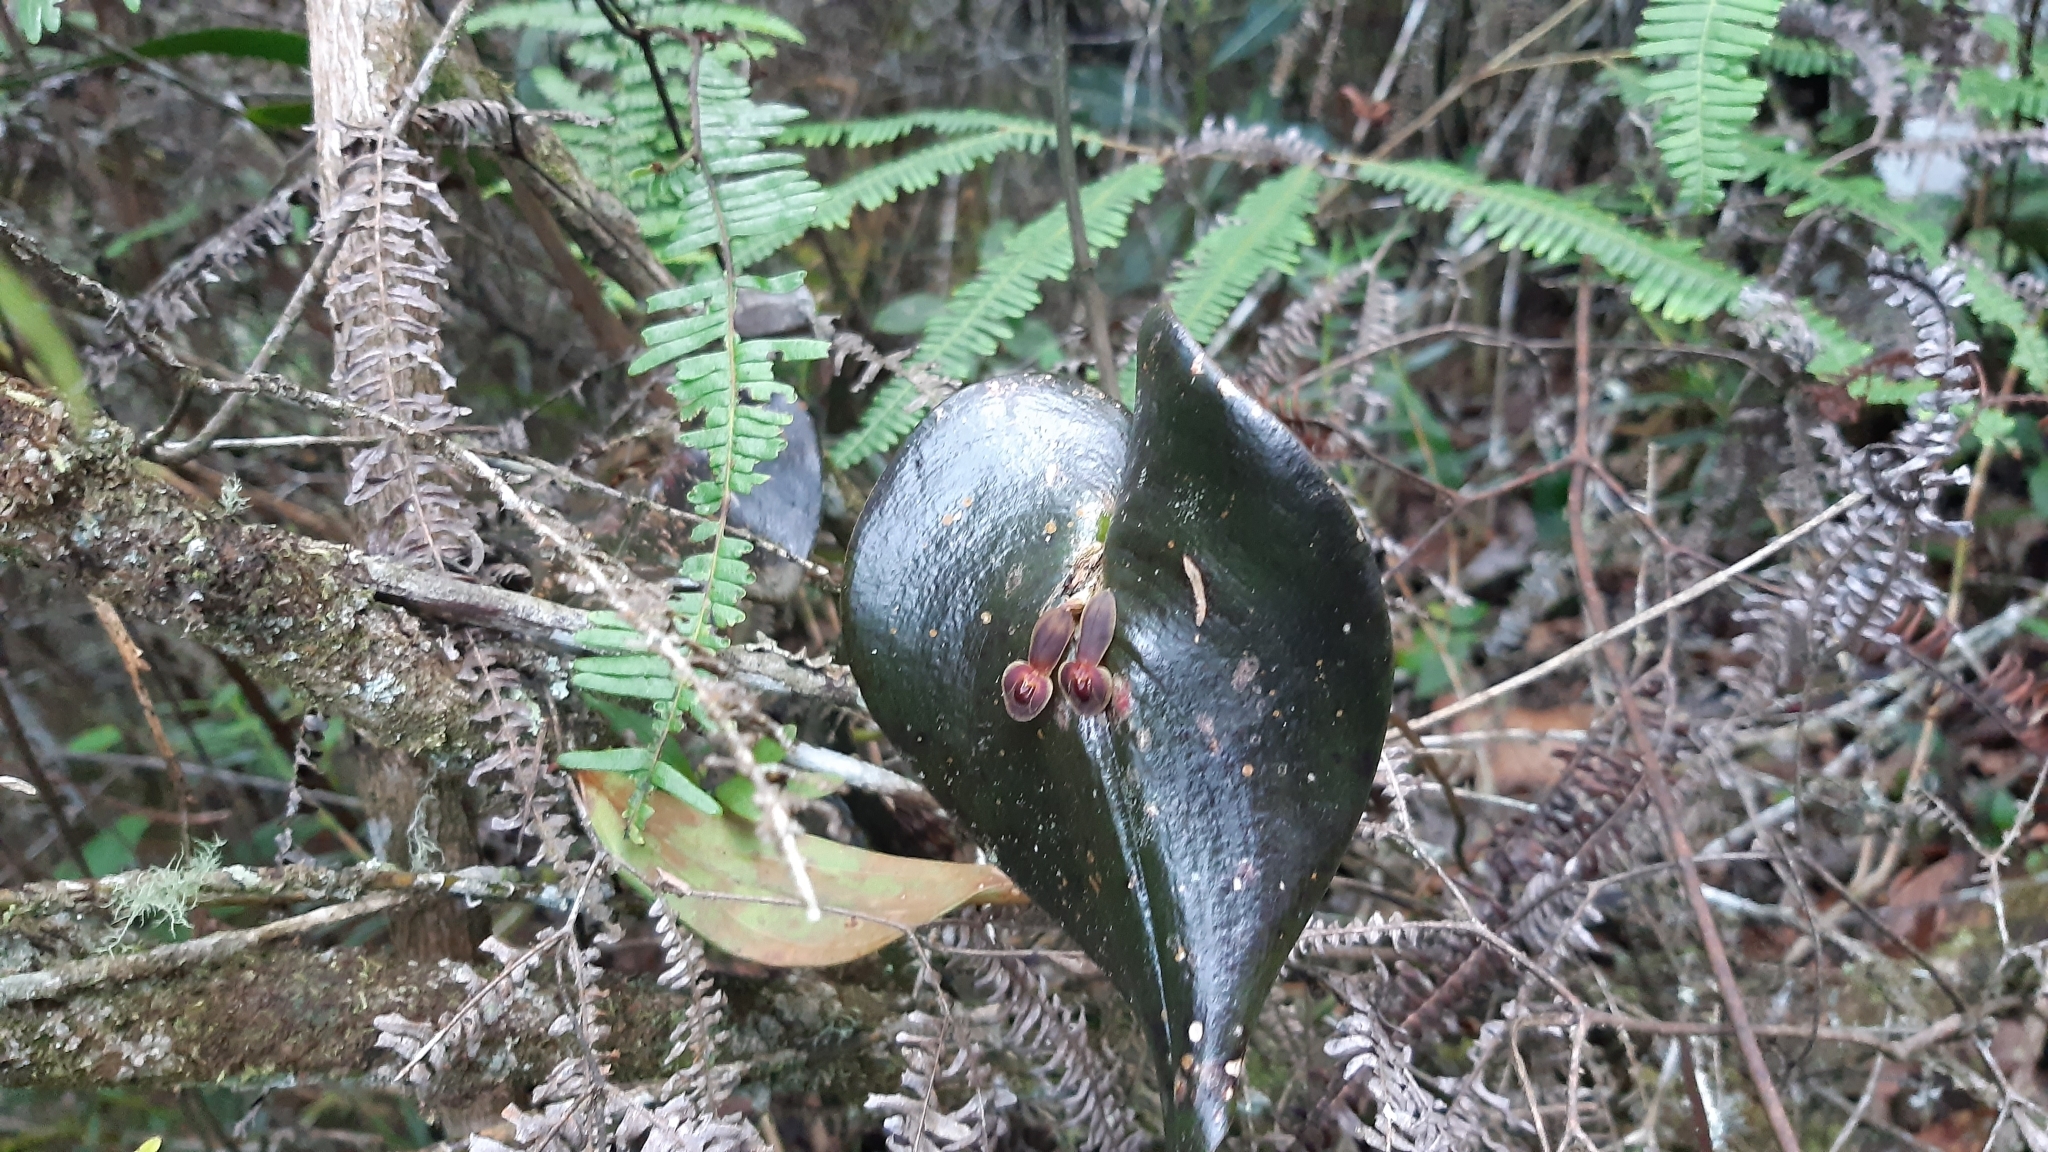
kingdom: Plantae
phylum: Tracheophyta
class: Liliopsida
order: Asparagales
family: Orchidaceae
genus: Pleurothallis
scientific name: Pleurothallis cordata
